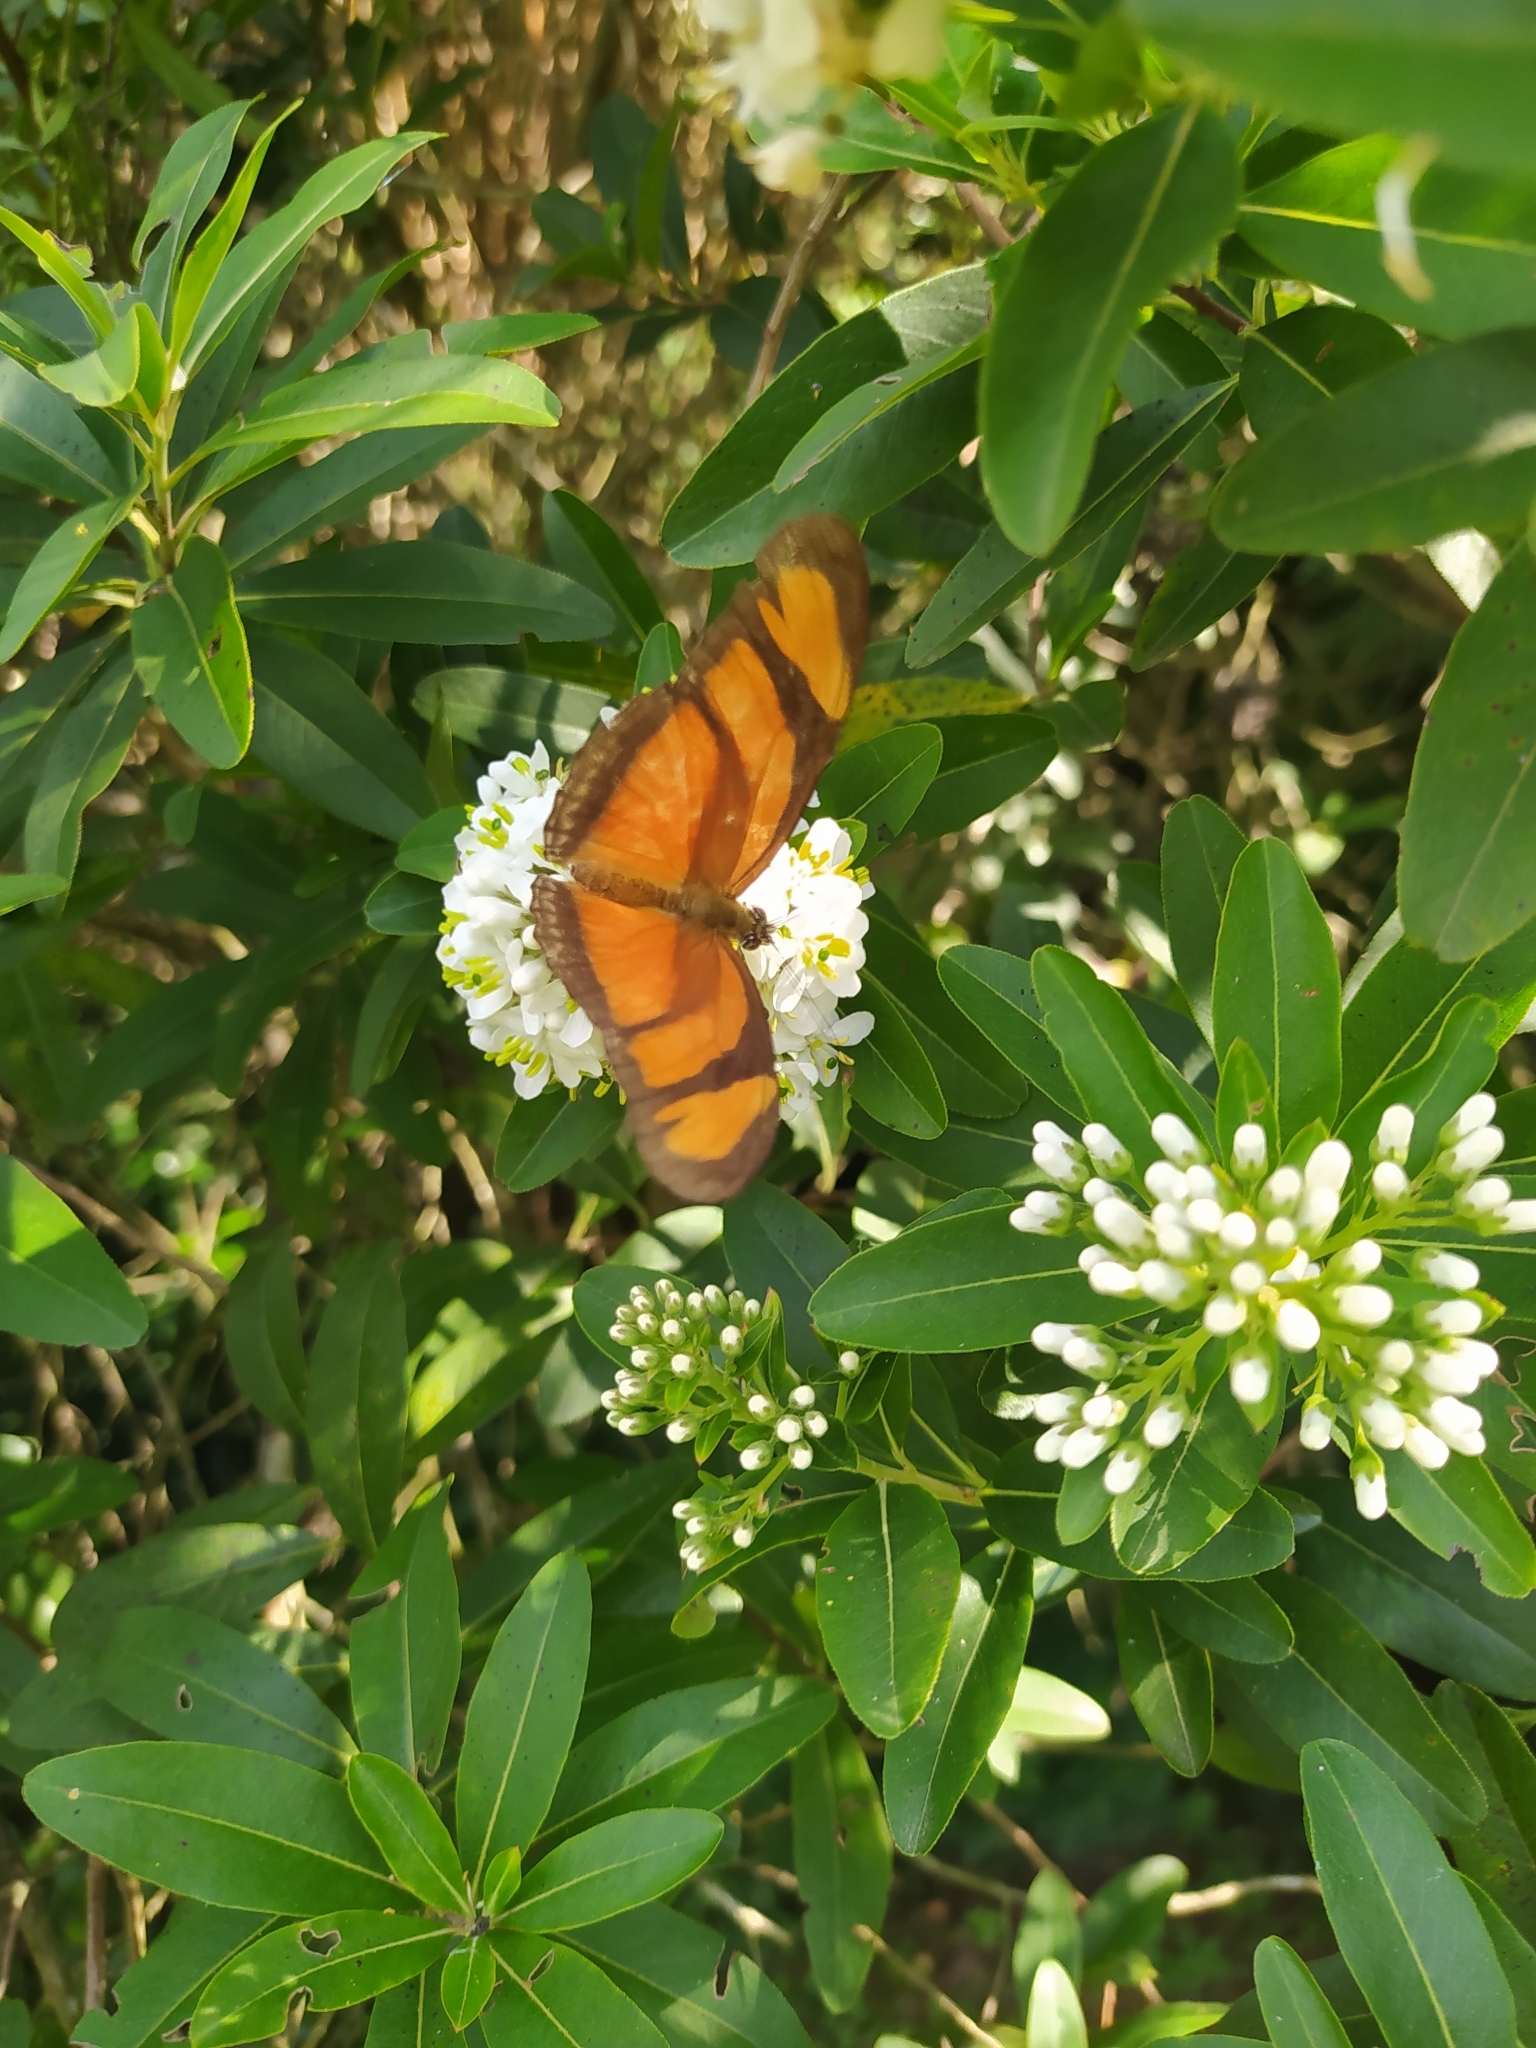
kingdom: Animalia
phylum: Arthropoda
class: Insecta
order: Lepidoptera
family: Nymphalidae
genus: Dryas
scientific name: Dryas iulia
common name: Flambeau
